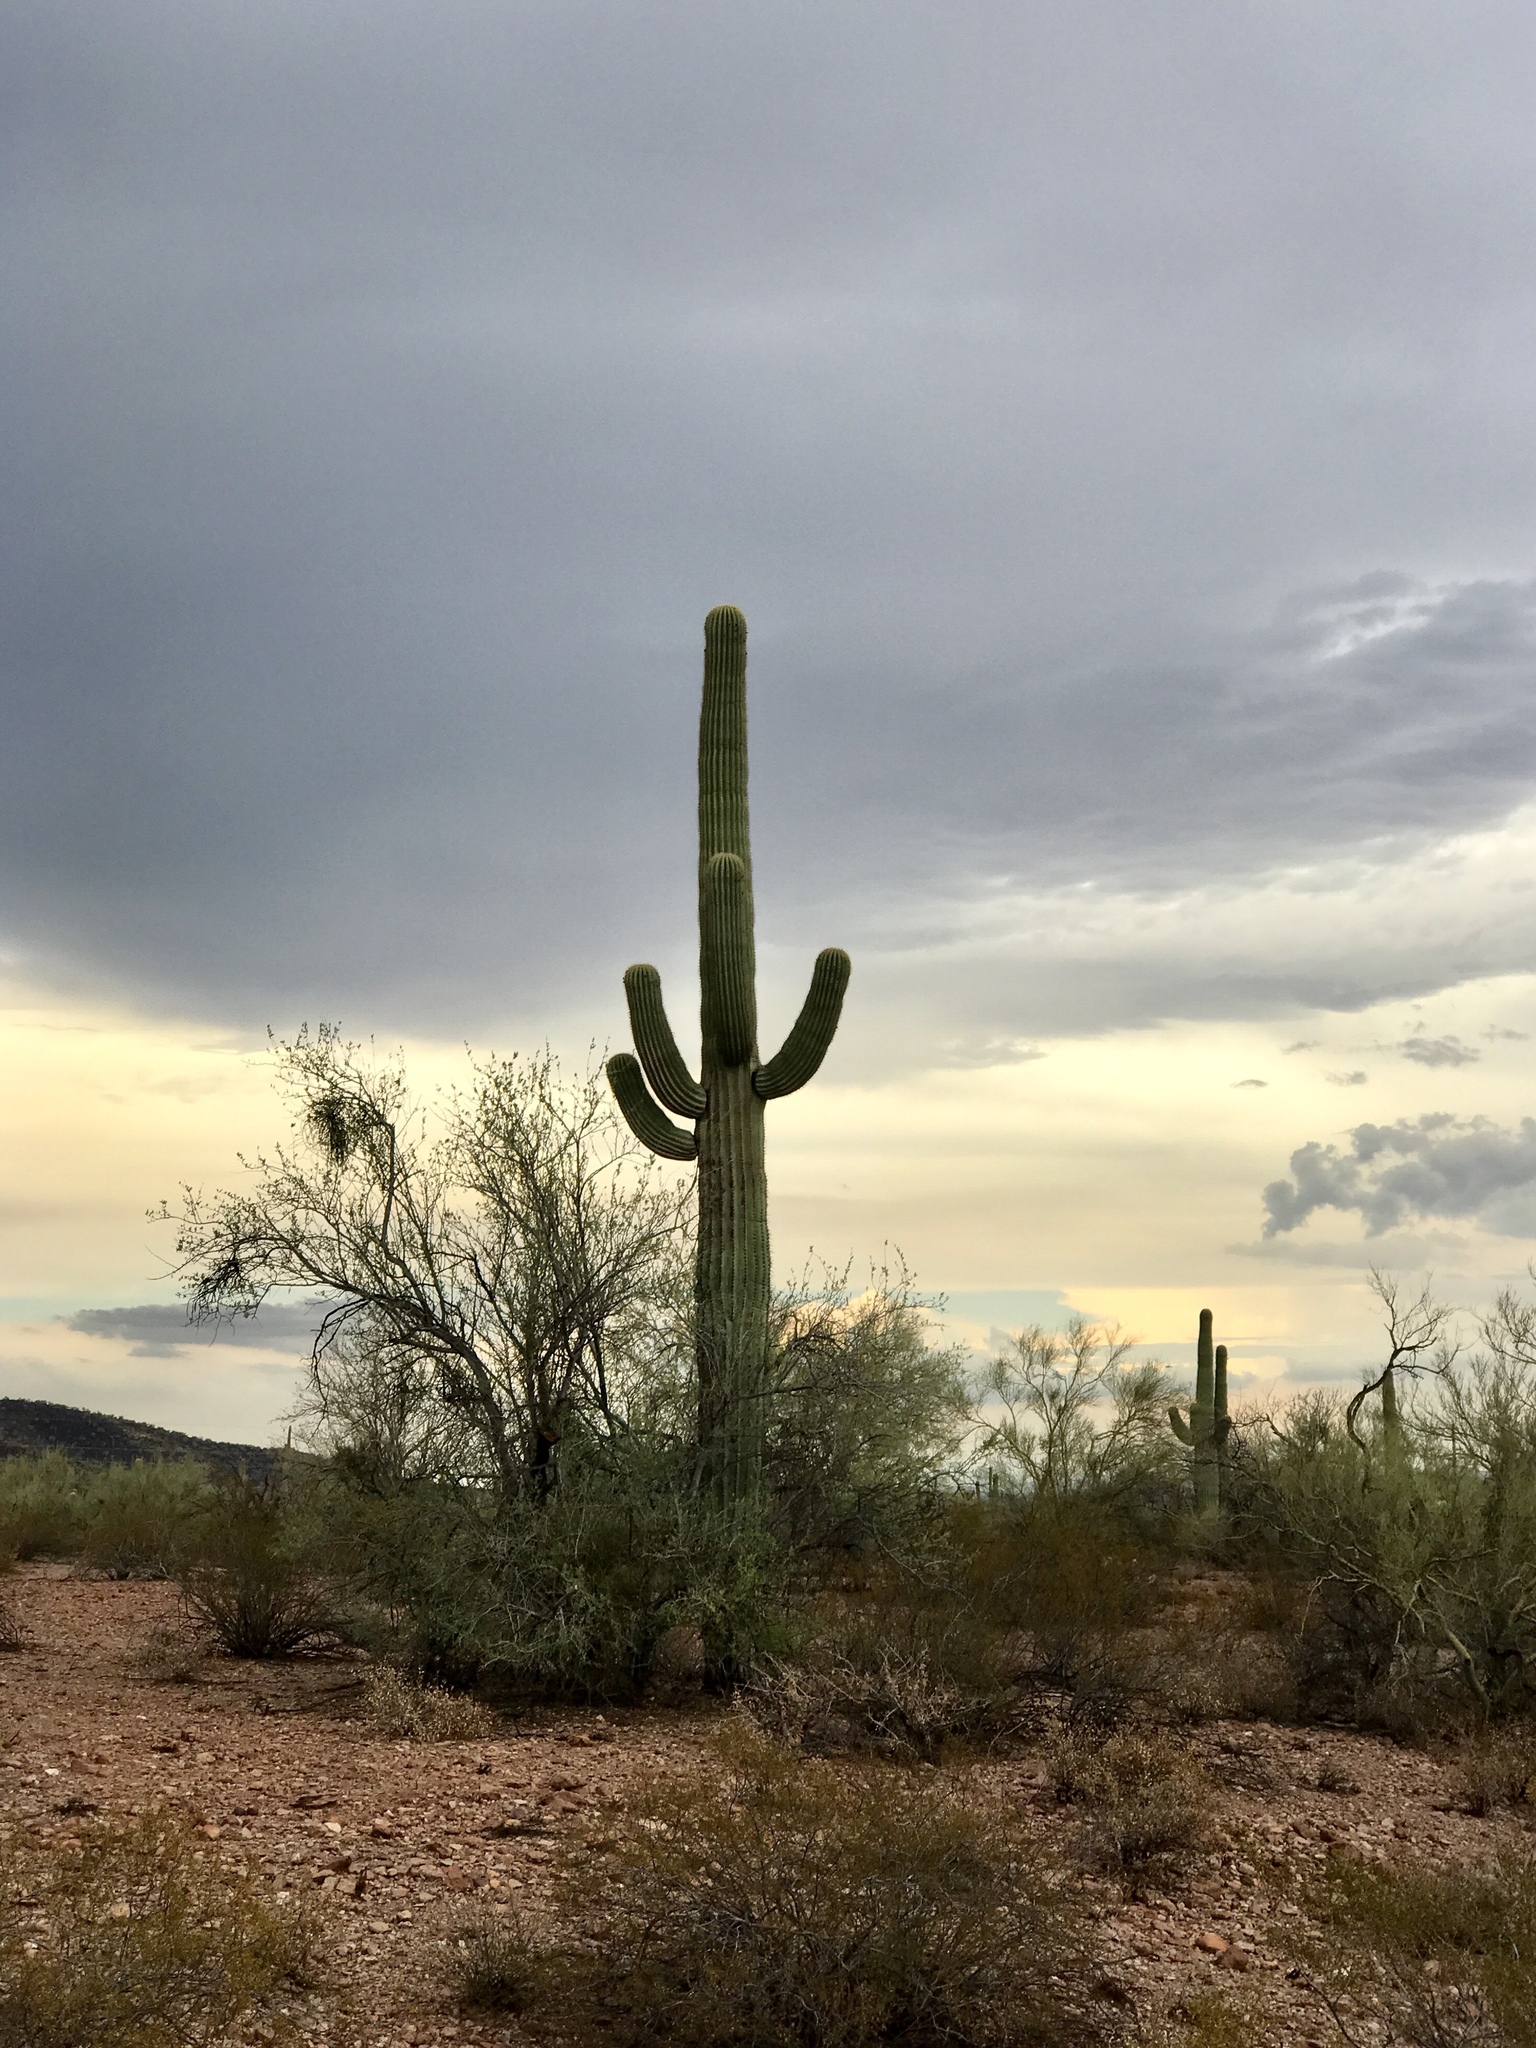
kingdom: Plantae
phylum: Tracheophyta
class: Magnoliopsida
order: Caryophyllales
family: Cactaceae
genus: Carnegiea
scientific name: Carnegiea gigantea
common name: Saguaro
